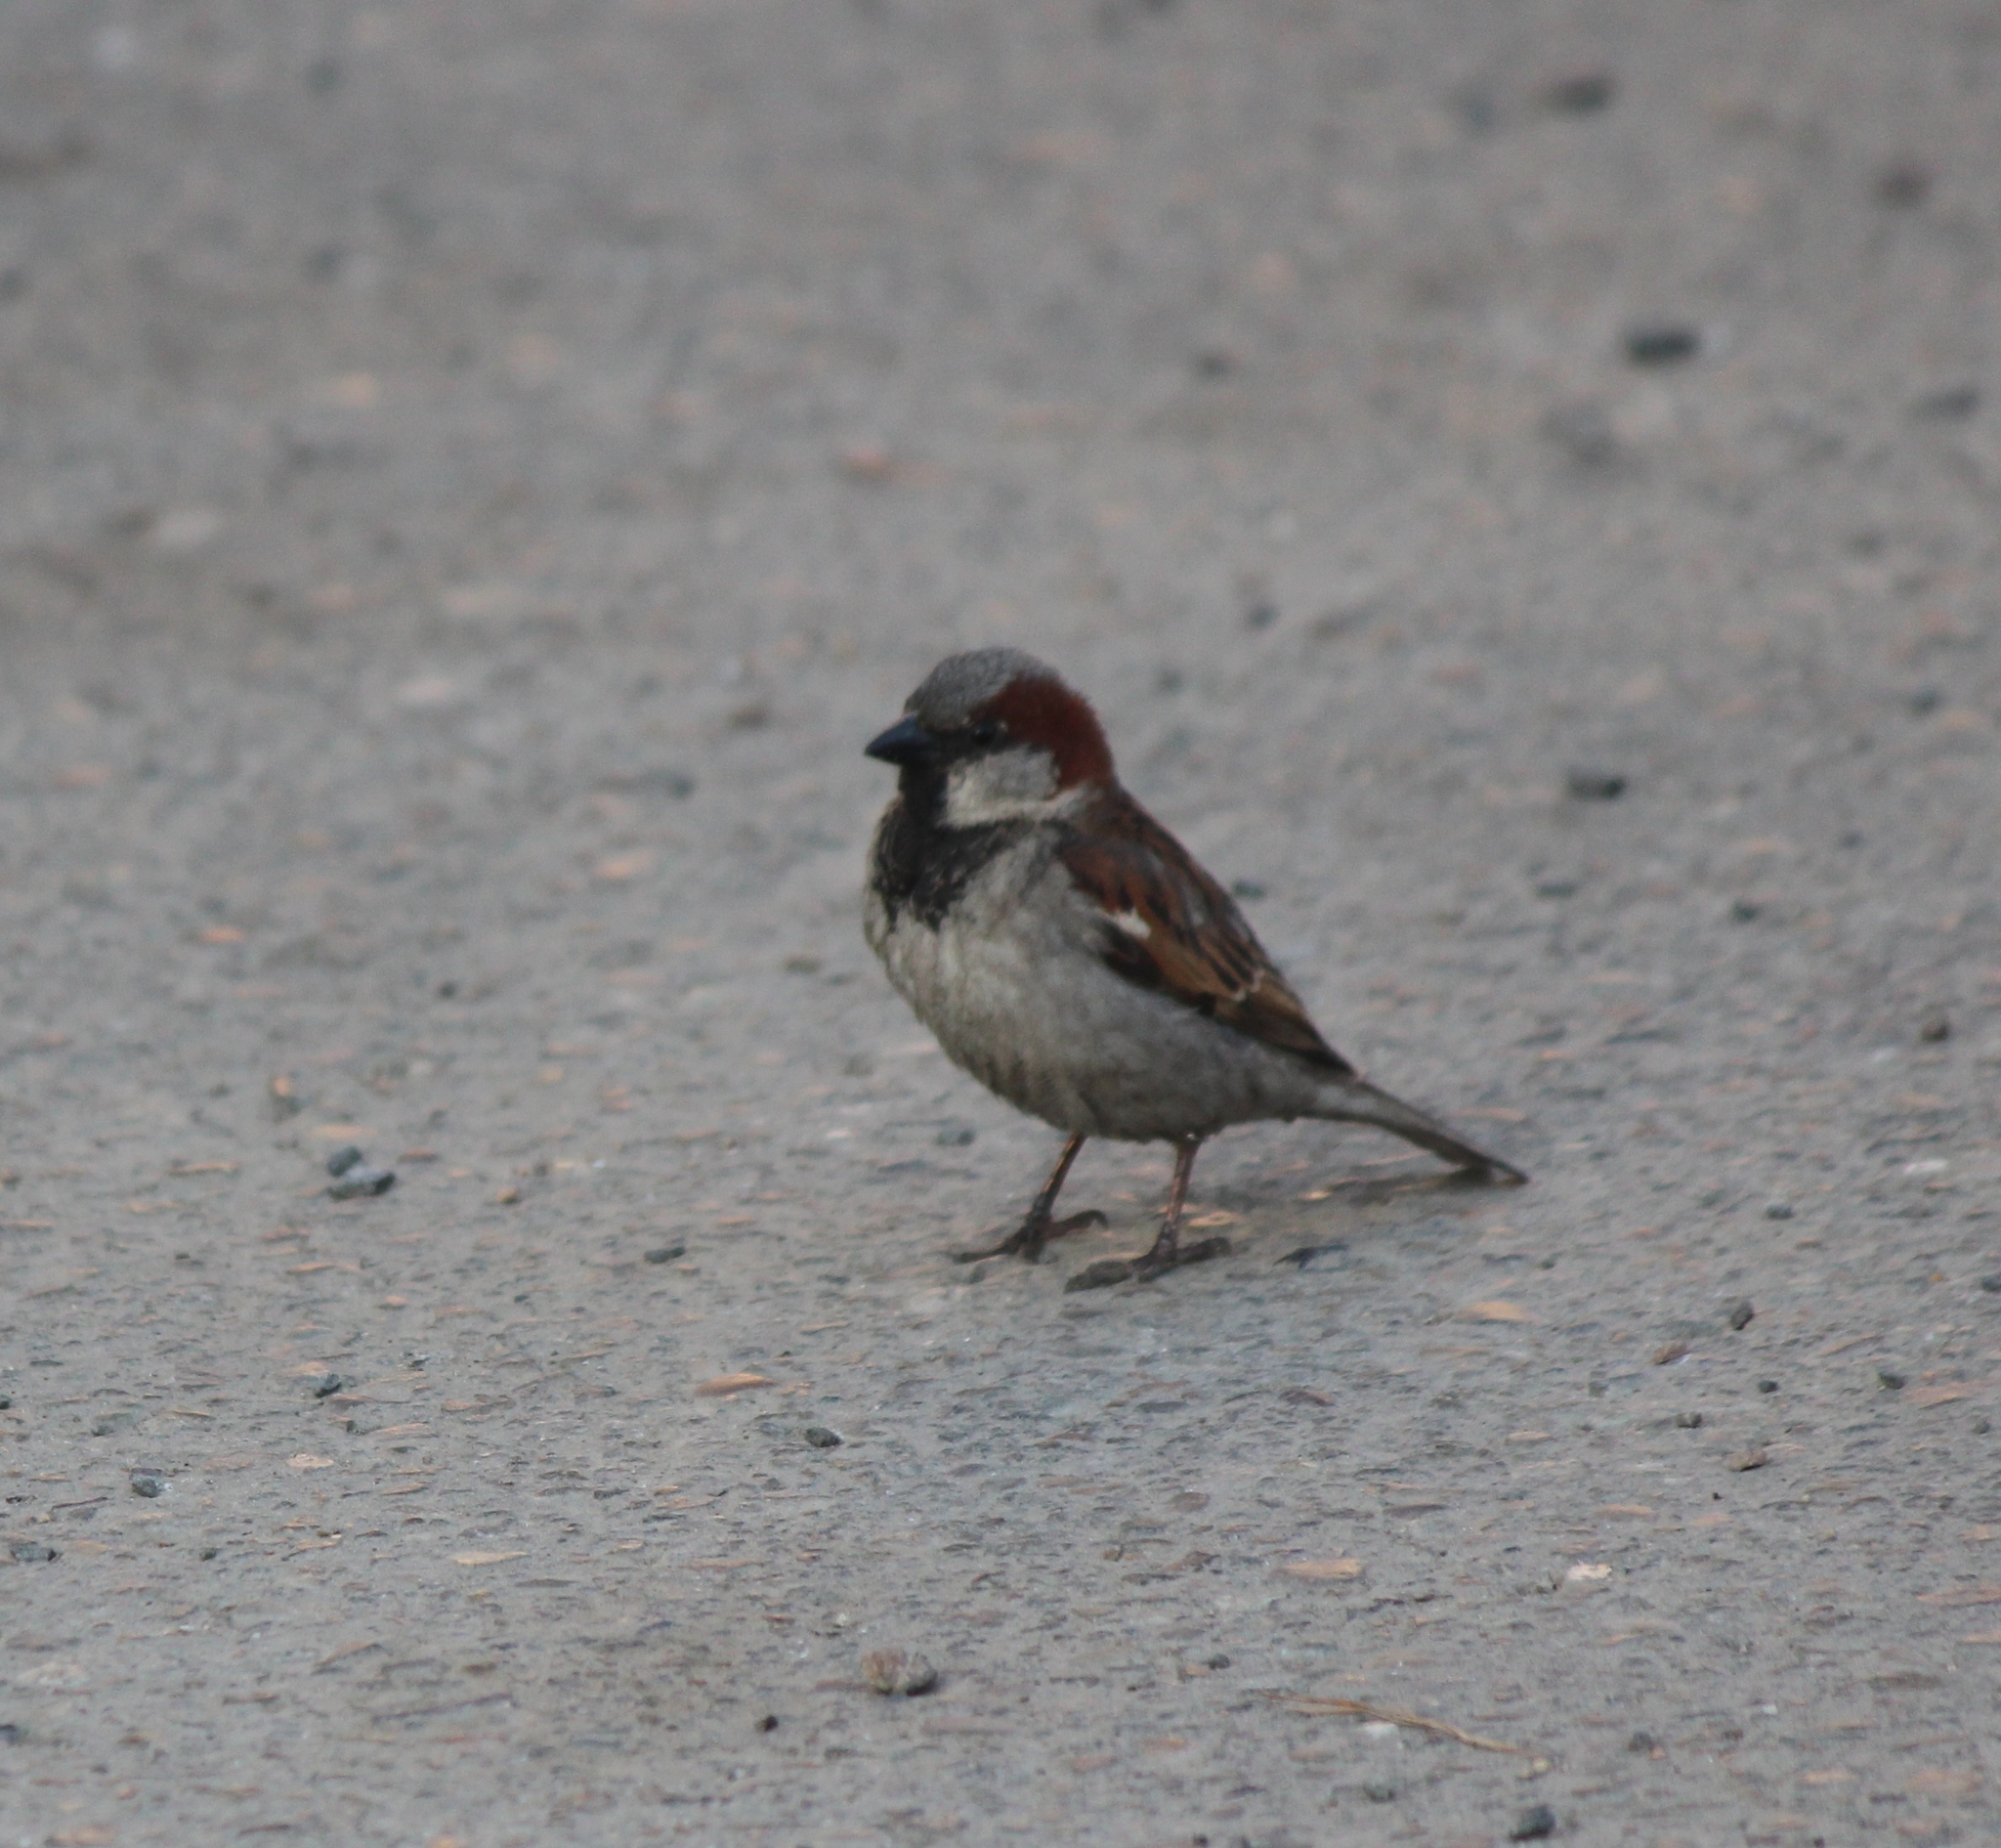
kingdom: Animalia
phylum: Chordata
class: Aves
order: Passeriformes
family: Passeridae
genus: Passer
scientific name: Passer domesticus
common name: House sparrow
